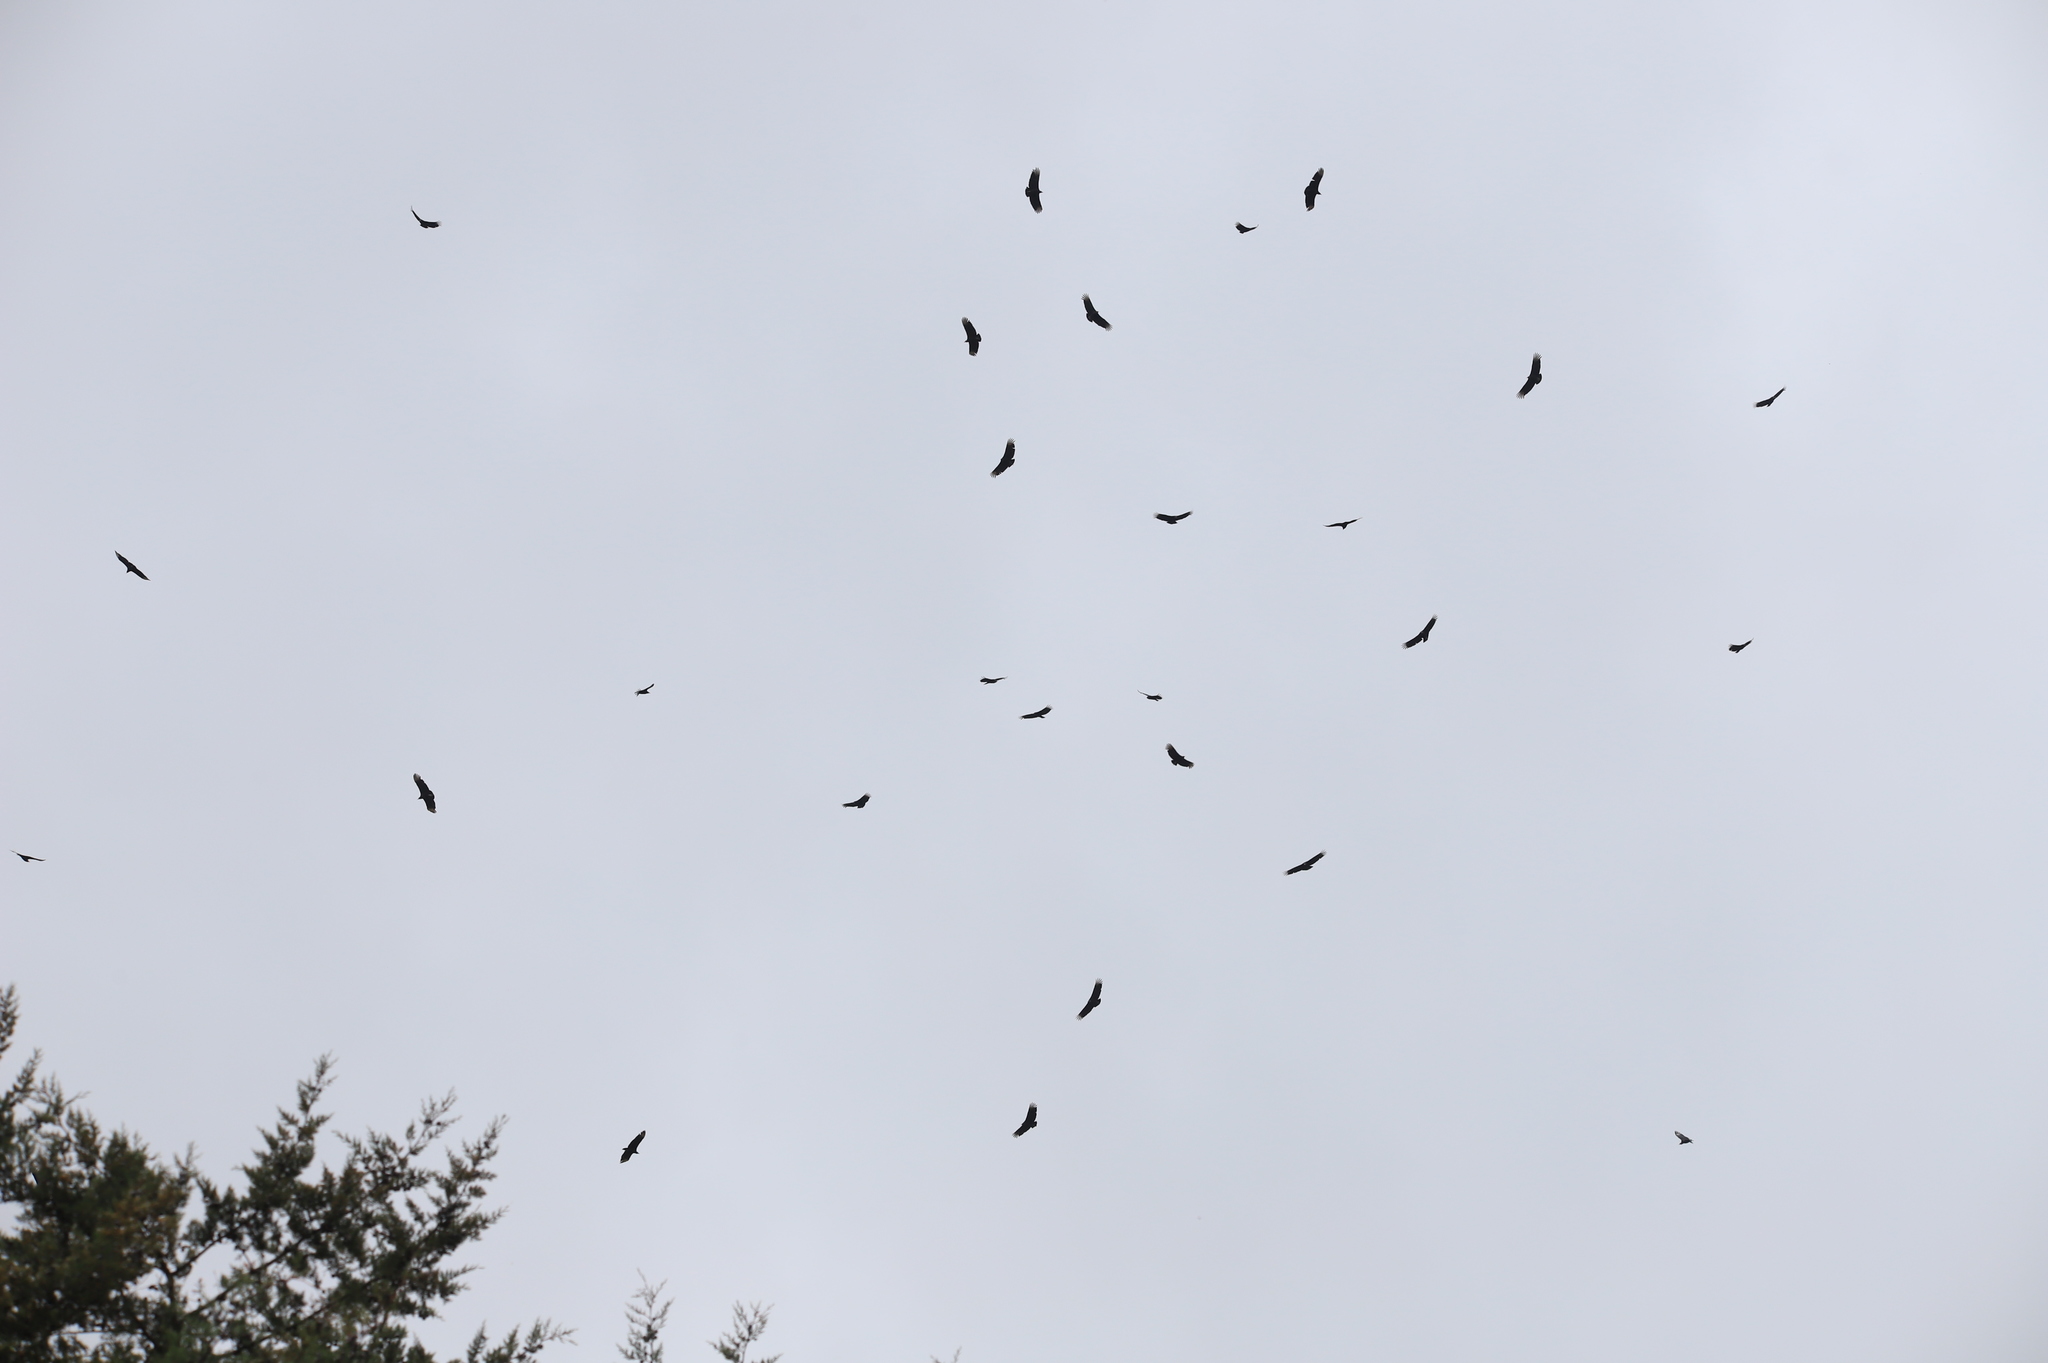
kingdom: Animalia
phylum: Chordata
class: Aves
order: Accipitriformes
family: Cathartidae
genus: Coragyps
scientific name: Coragyps atratus
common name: Black vulture
